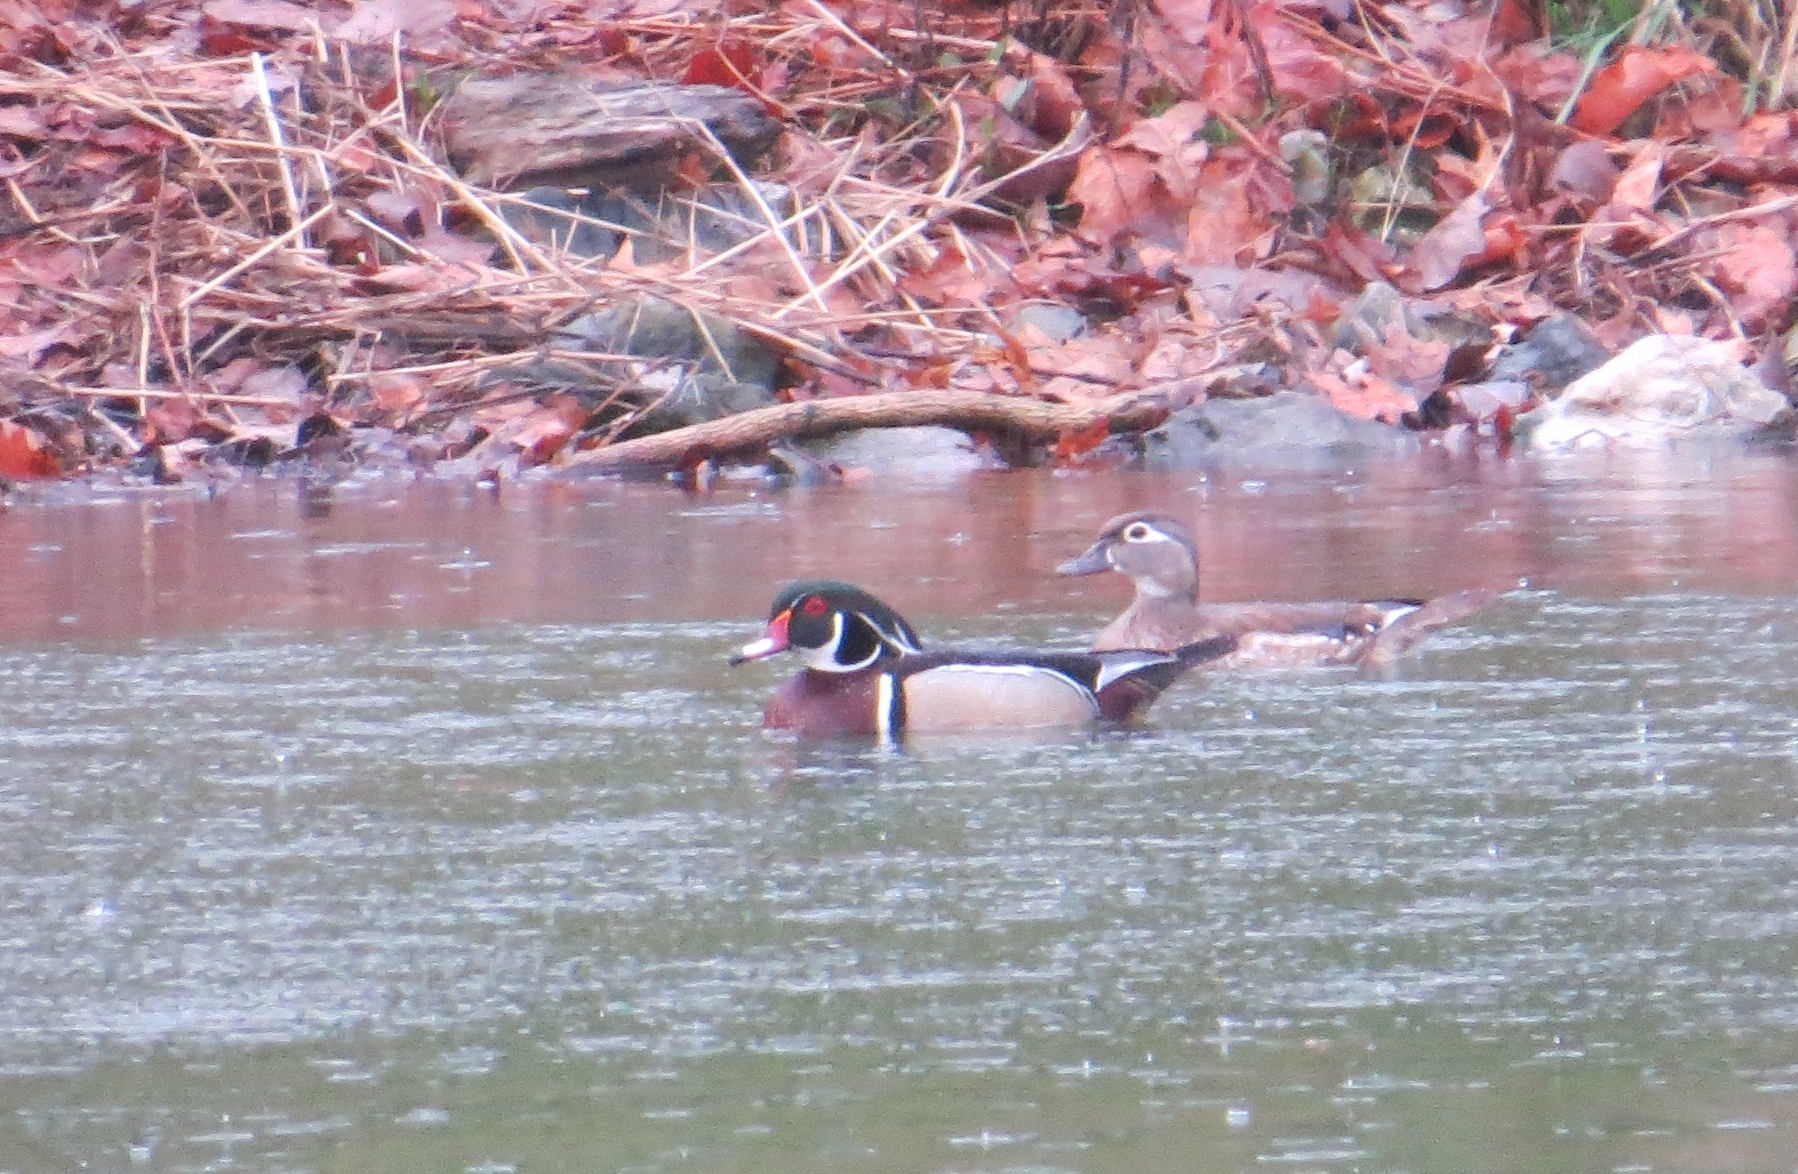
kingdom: Animalia
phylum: Chordata
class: Aves
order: Anseriformes
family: Anatidae
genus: Aix
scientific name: Aix sponsa
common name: Wood duck
